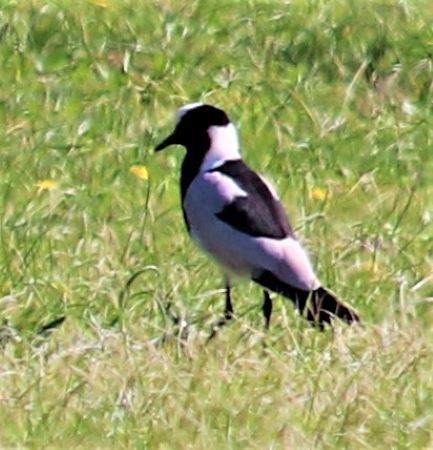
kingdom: Animalia
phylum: Chordata
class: Aves
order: Charadriiformes
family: Charadriidae
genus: Vanellus
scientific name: Vanellus armatus
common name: Blacksmith lapwing
